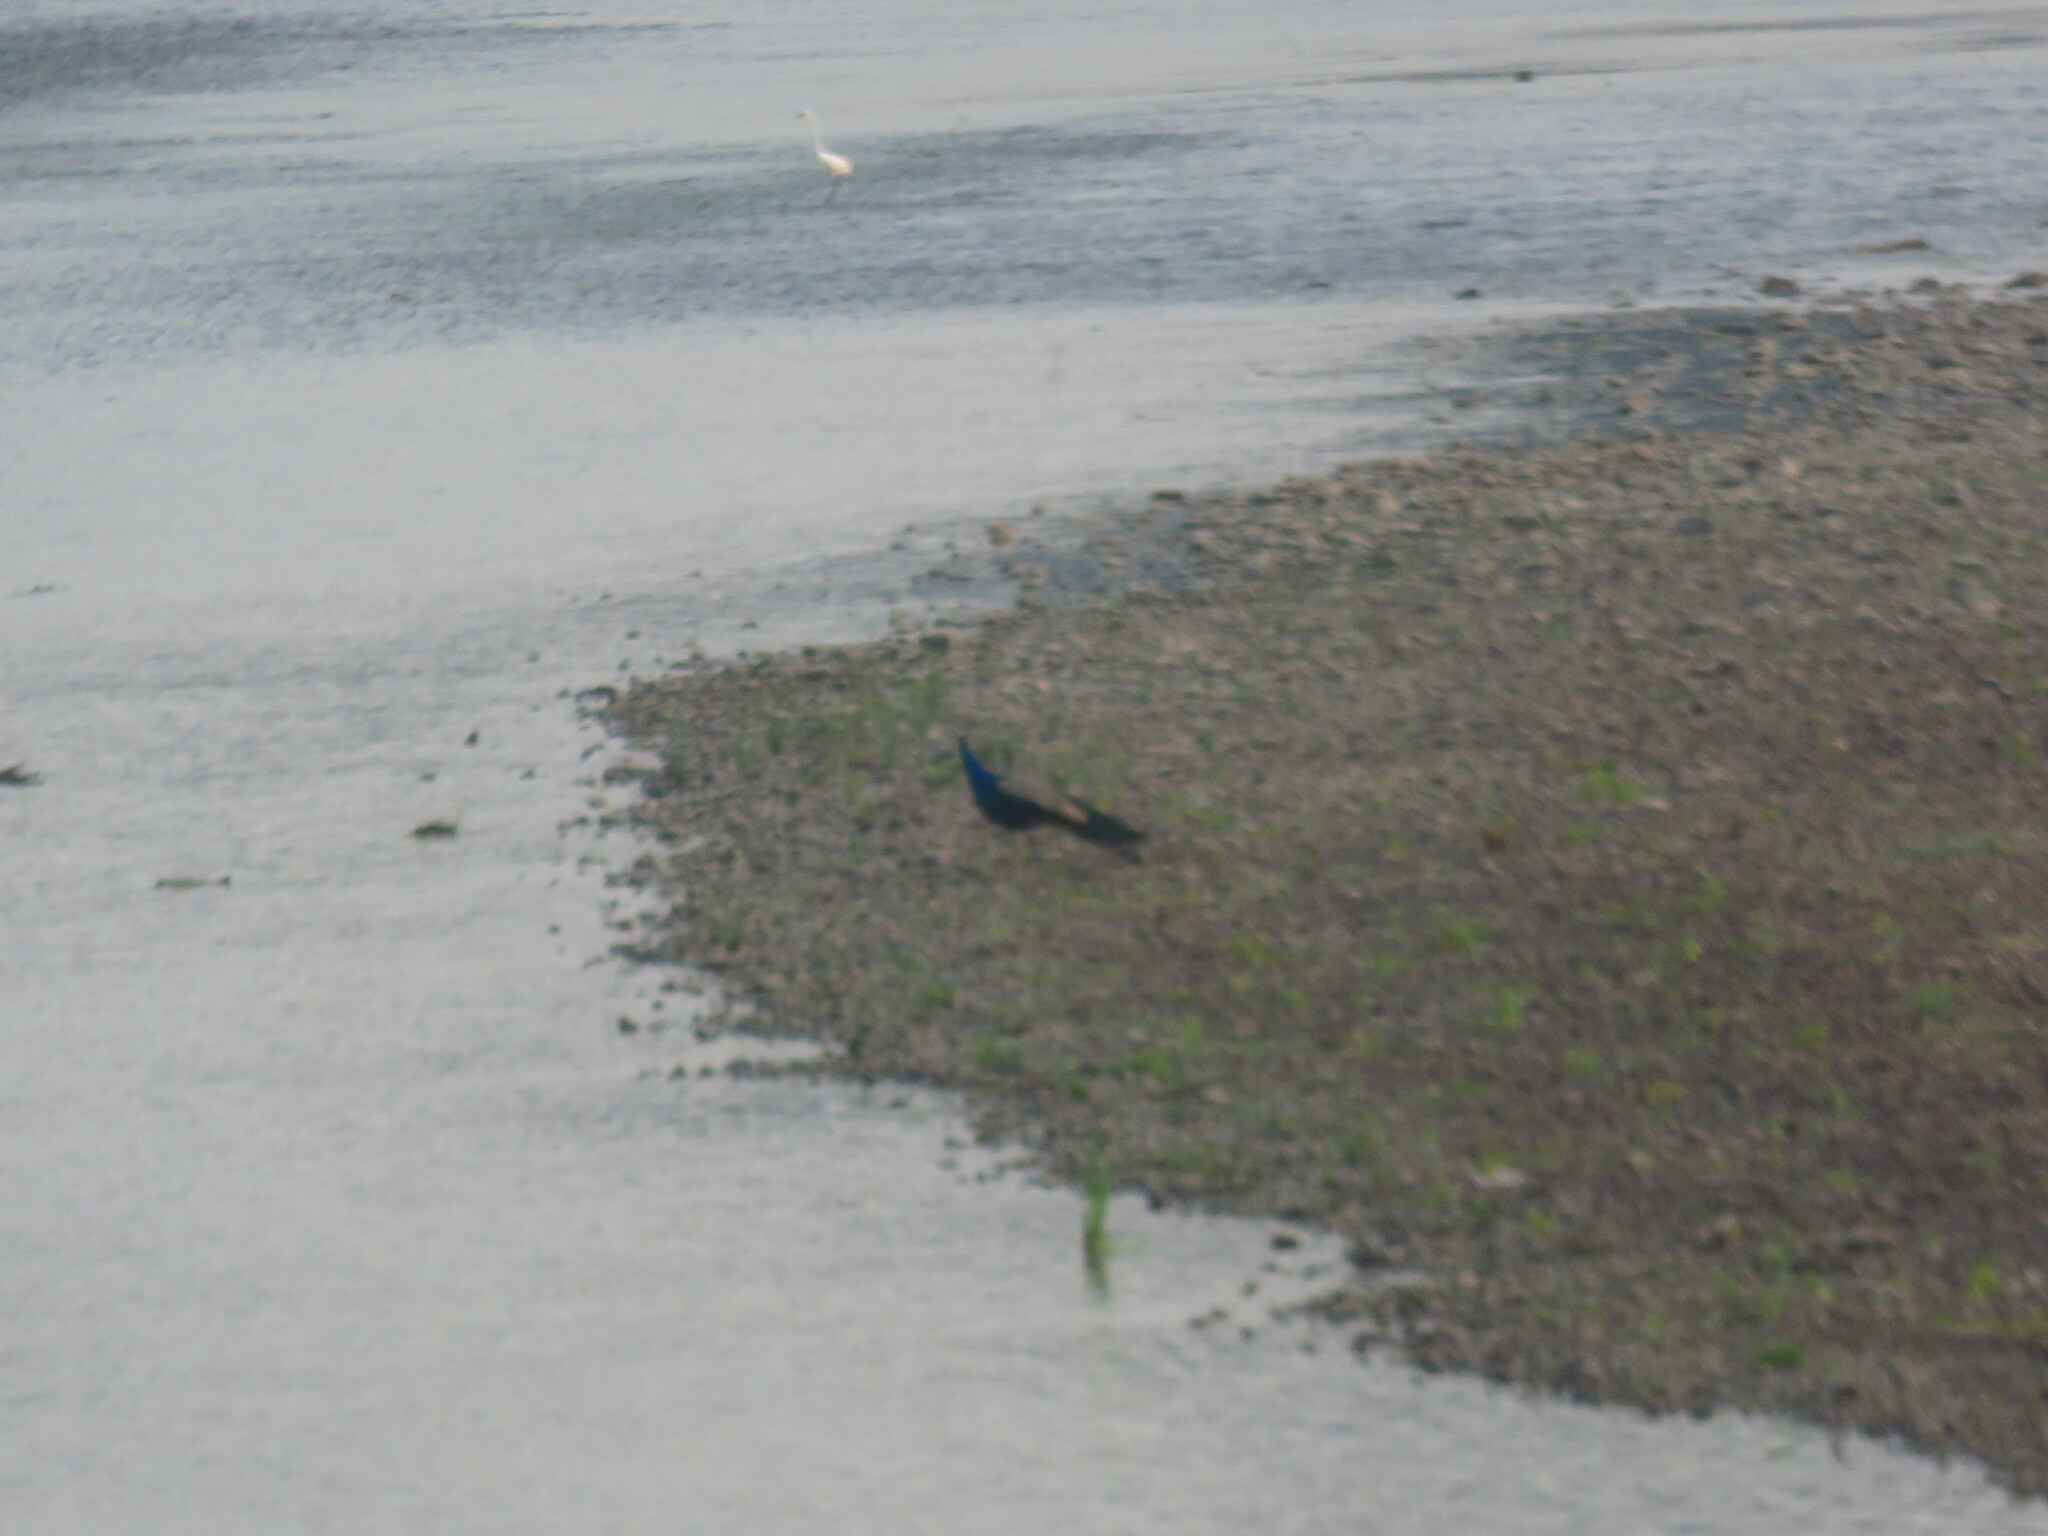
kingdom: Animalia
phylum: Chordata
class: Aves
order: Galliformes
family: Phasianidae
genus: Pavo
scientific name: Pavo cristatus
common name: Indian peafowl
